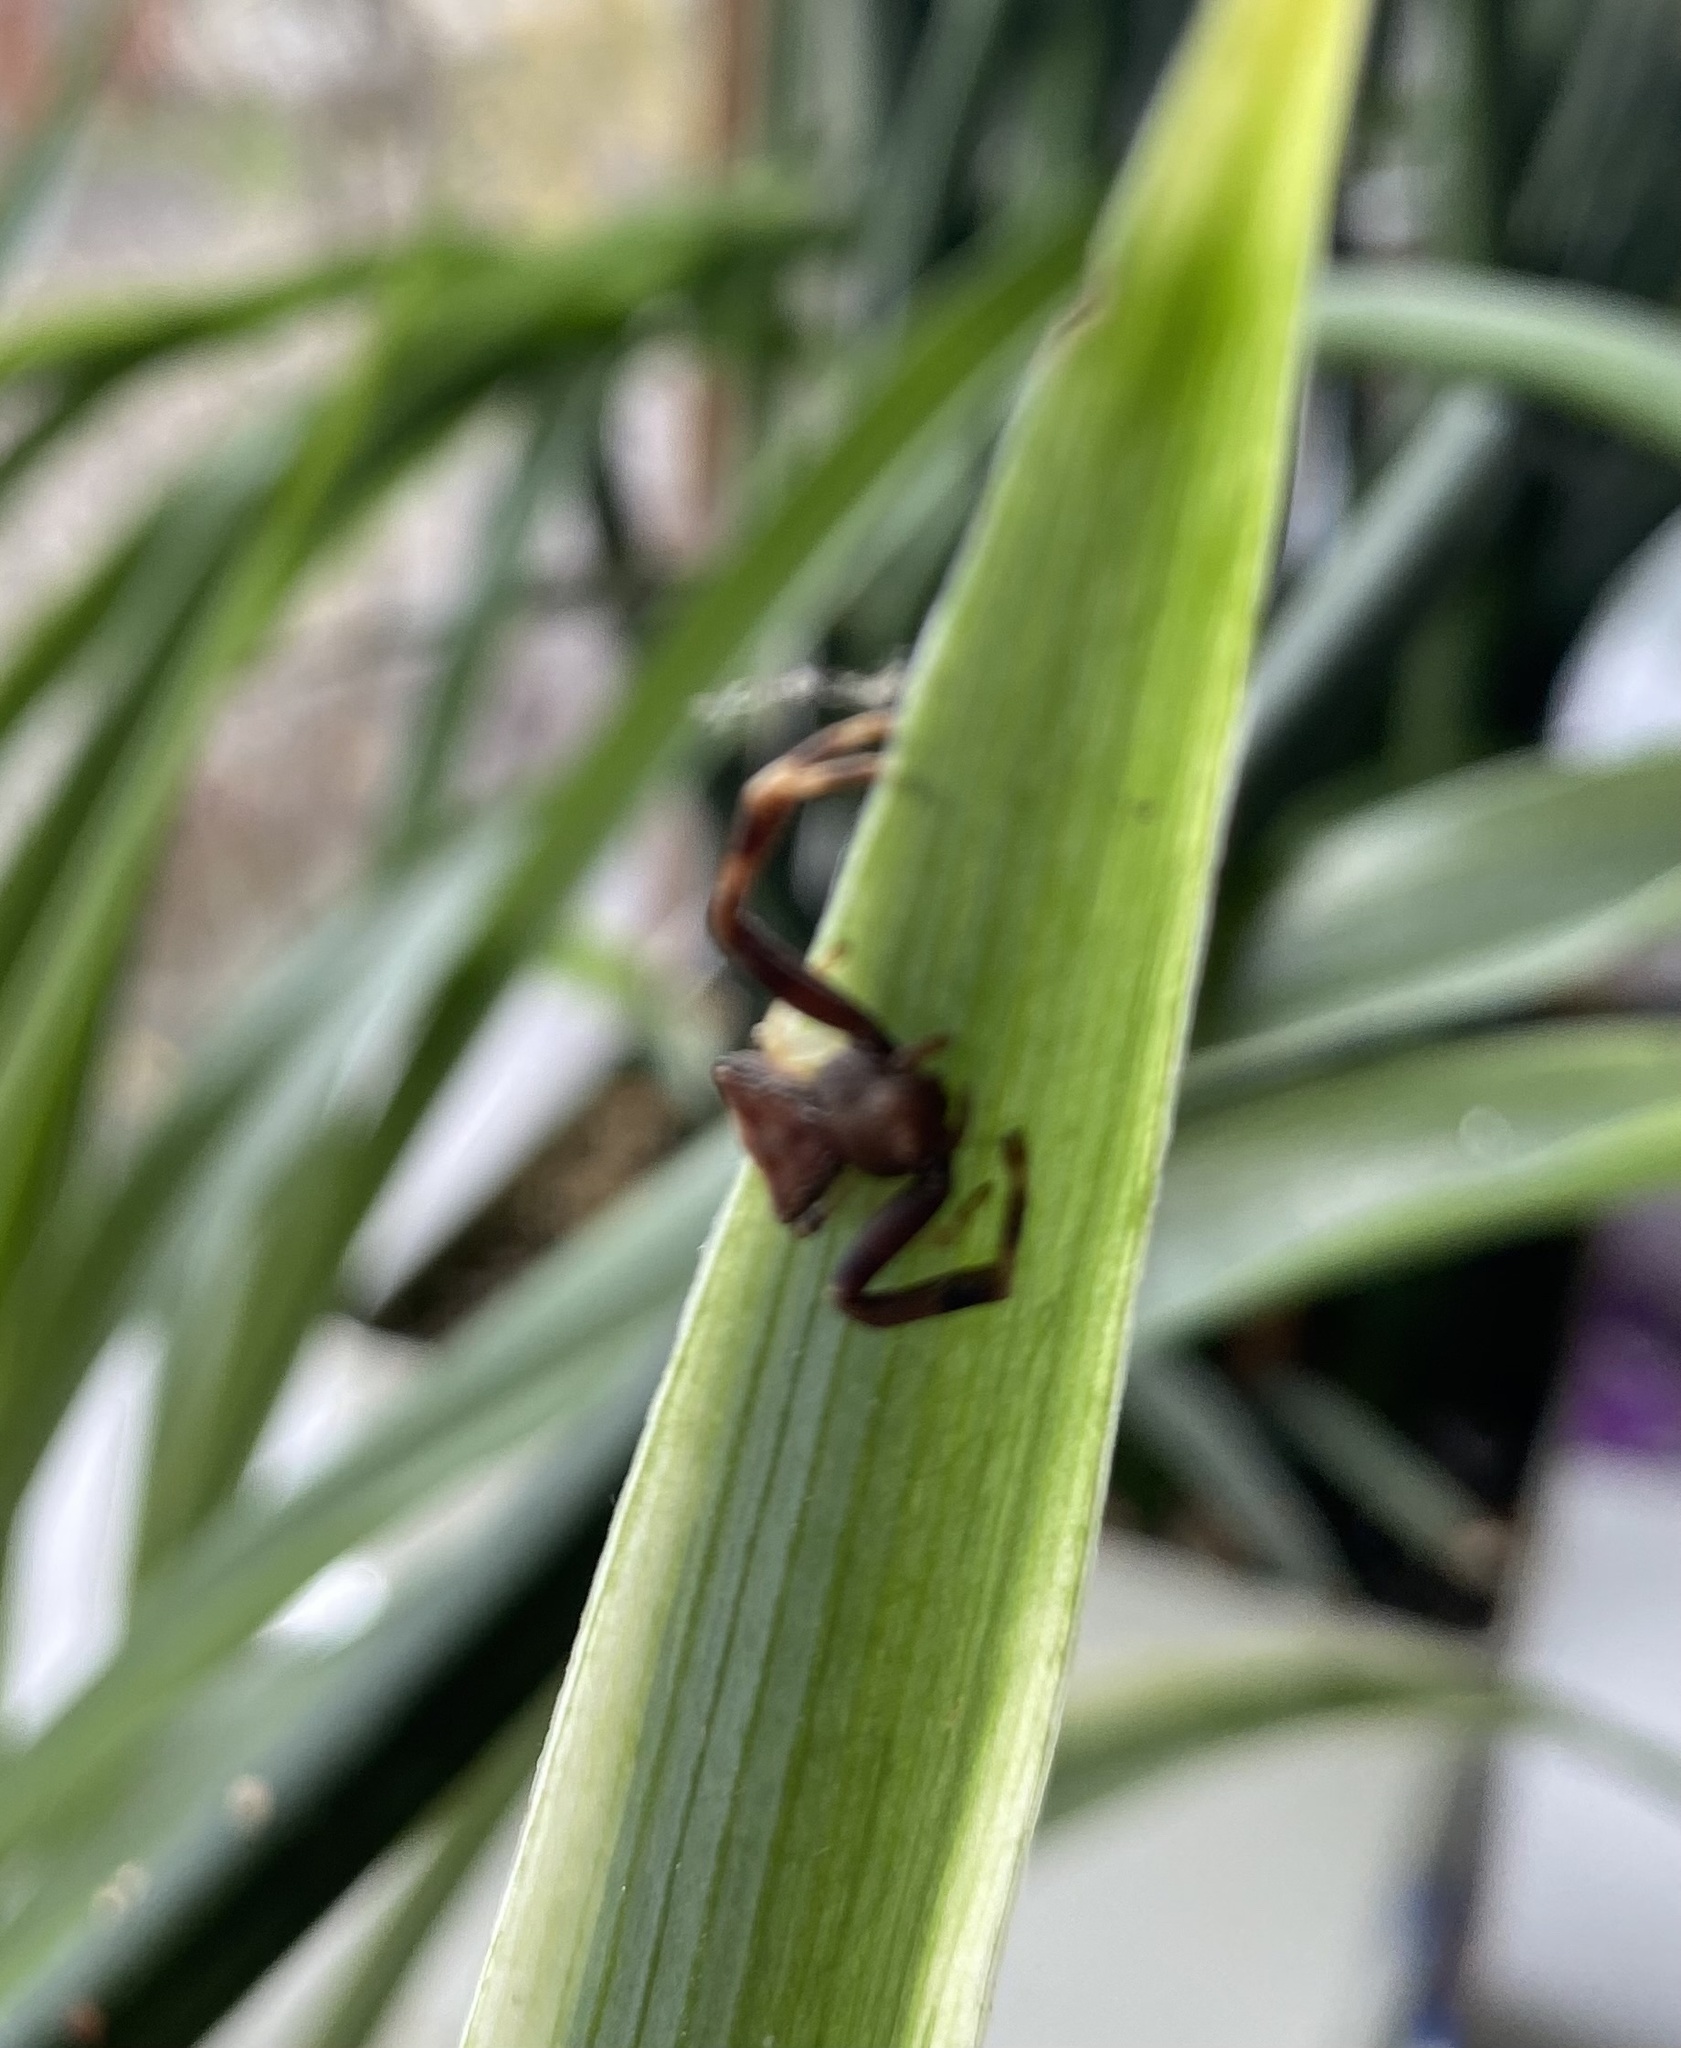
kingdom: Animalia
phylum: Arthropoda
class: Arachnida
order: Araneae
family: Thomisidae
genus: Pistius
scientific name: Pistius truncatus
